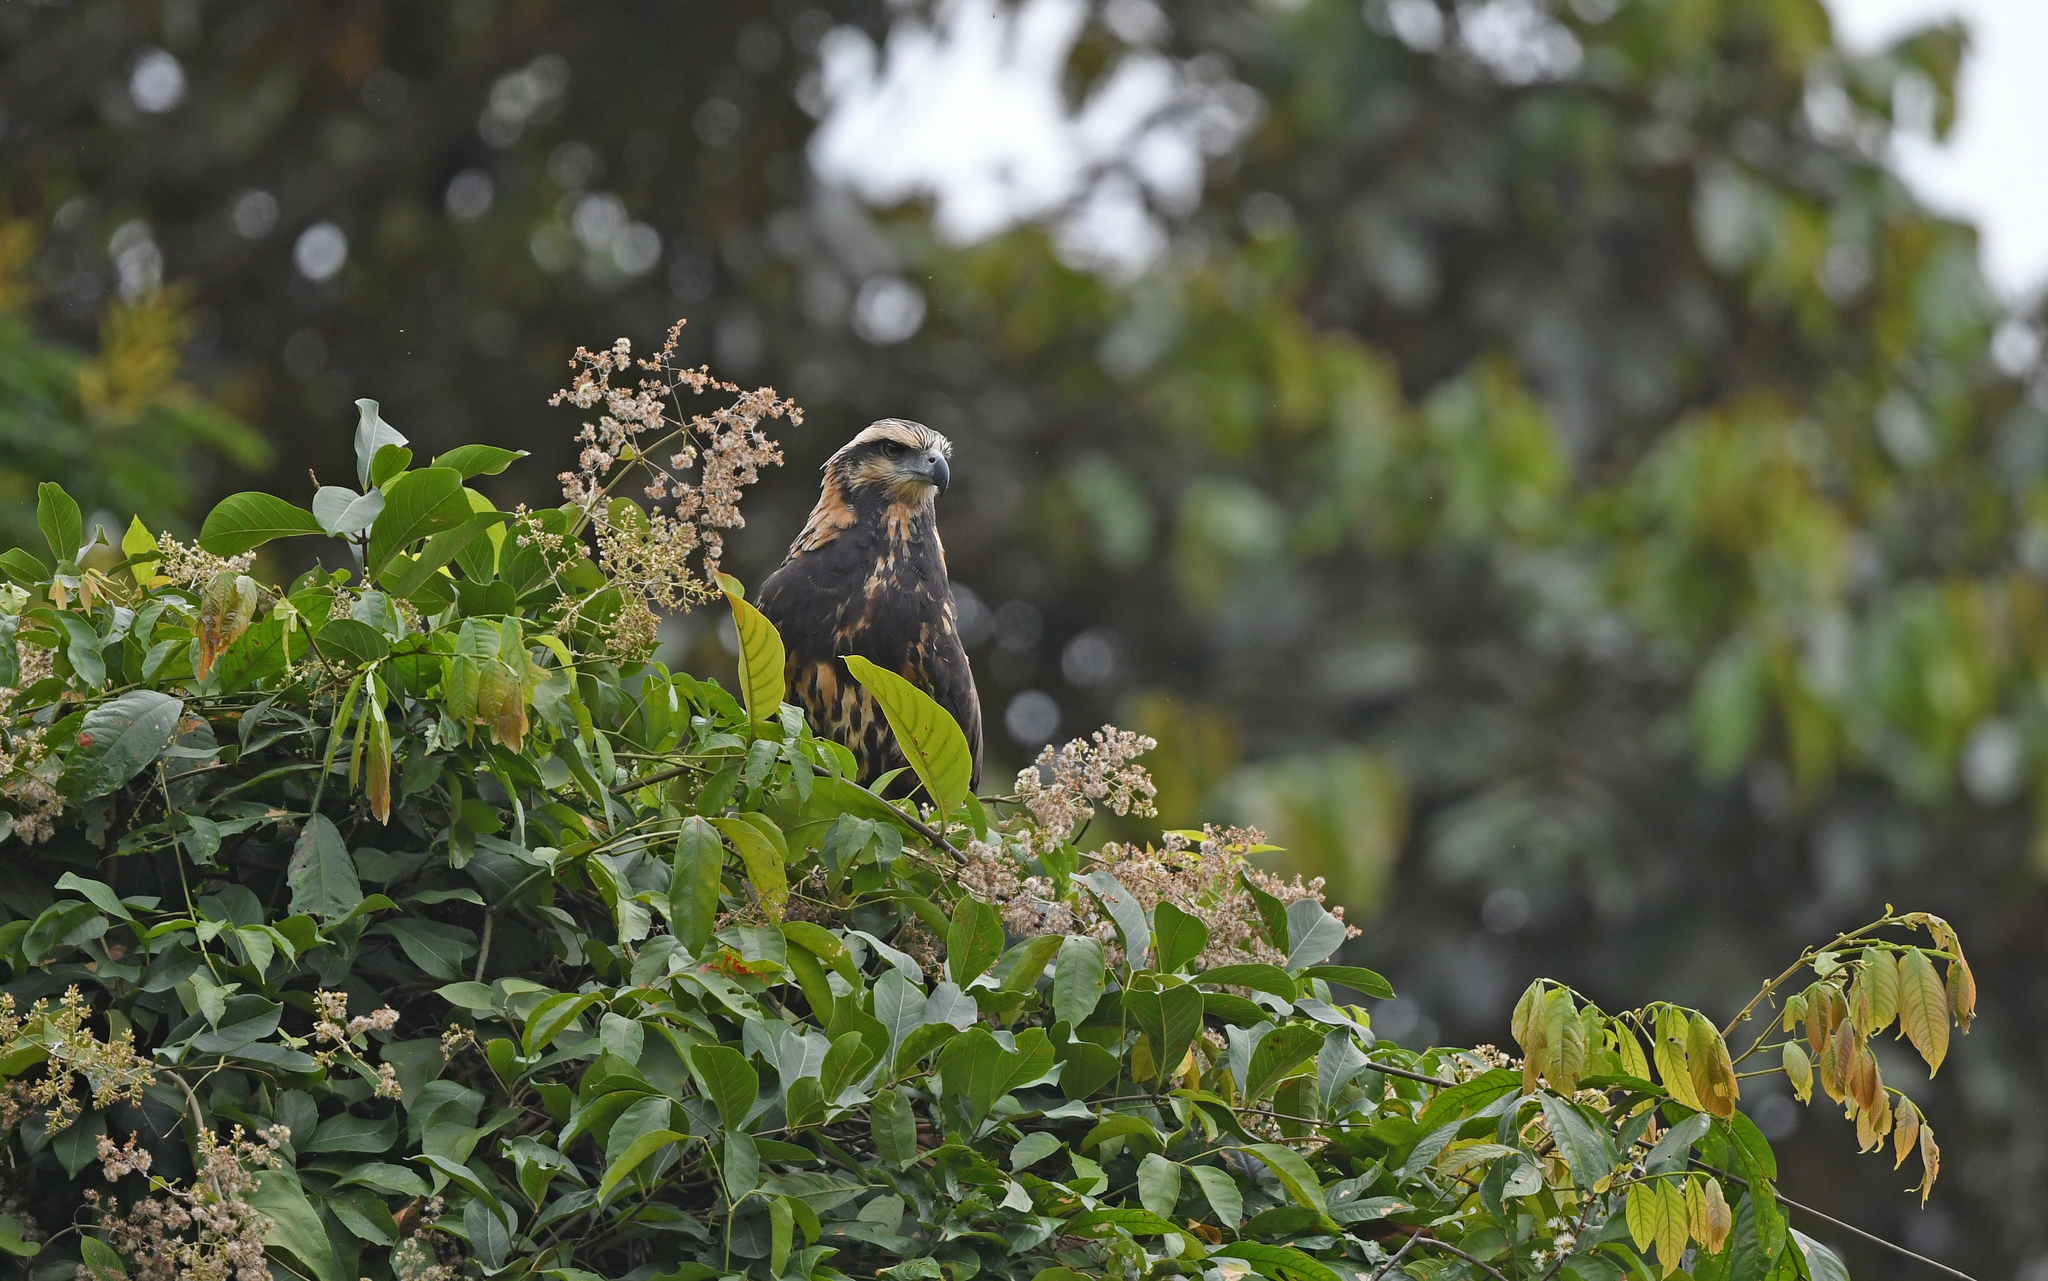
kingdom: Animalia
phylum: Chordata
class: Aves
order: Accipitriformes
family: Accipitridae
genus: Harpyhaliaetus
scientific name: Harpyhaliaetus solitarius
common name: Solitary eagle
